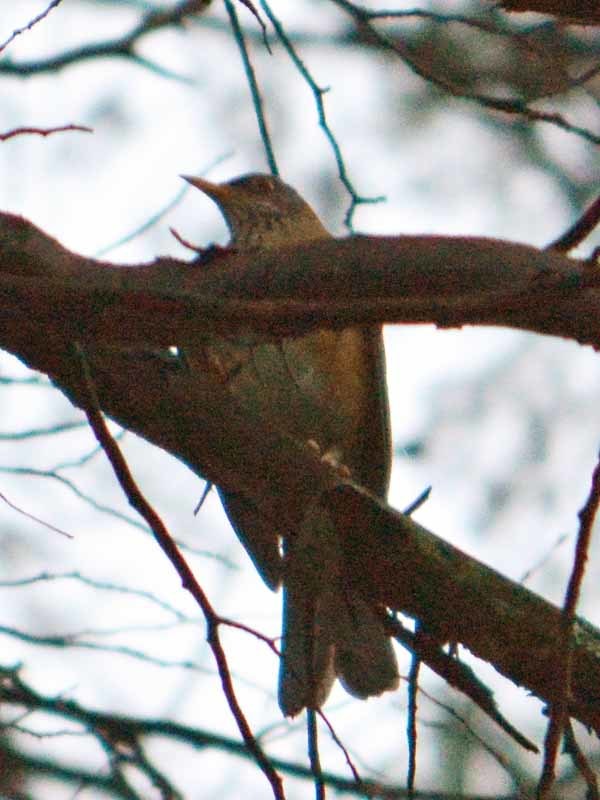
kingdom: Animalia
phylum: Chordata
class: Aves
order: Passeriformes
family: Turdidae
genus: Turdus
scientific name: Turdus rufopalliatus
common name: Rufous-backed robin
